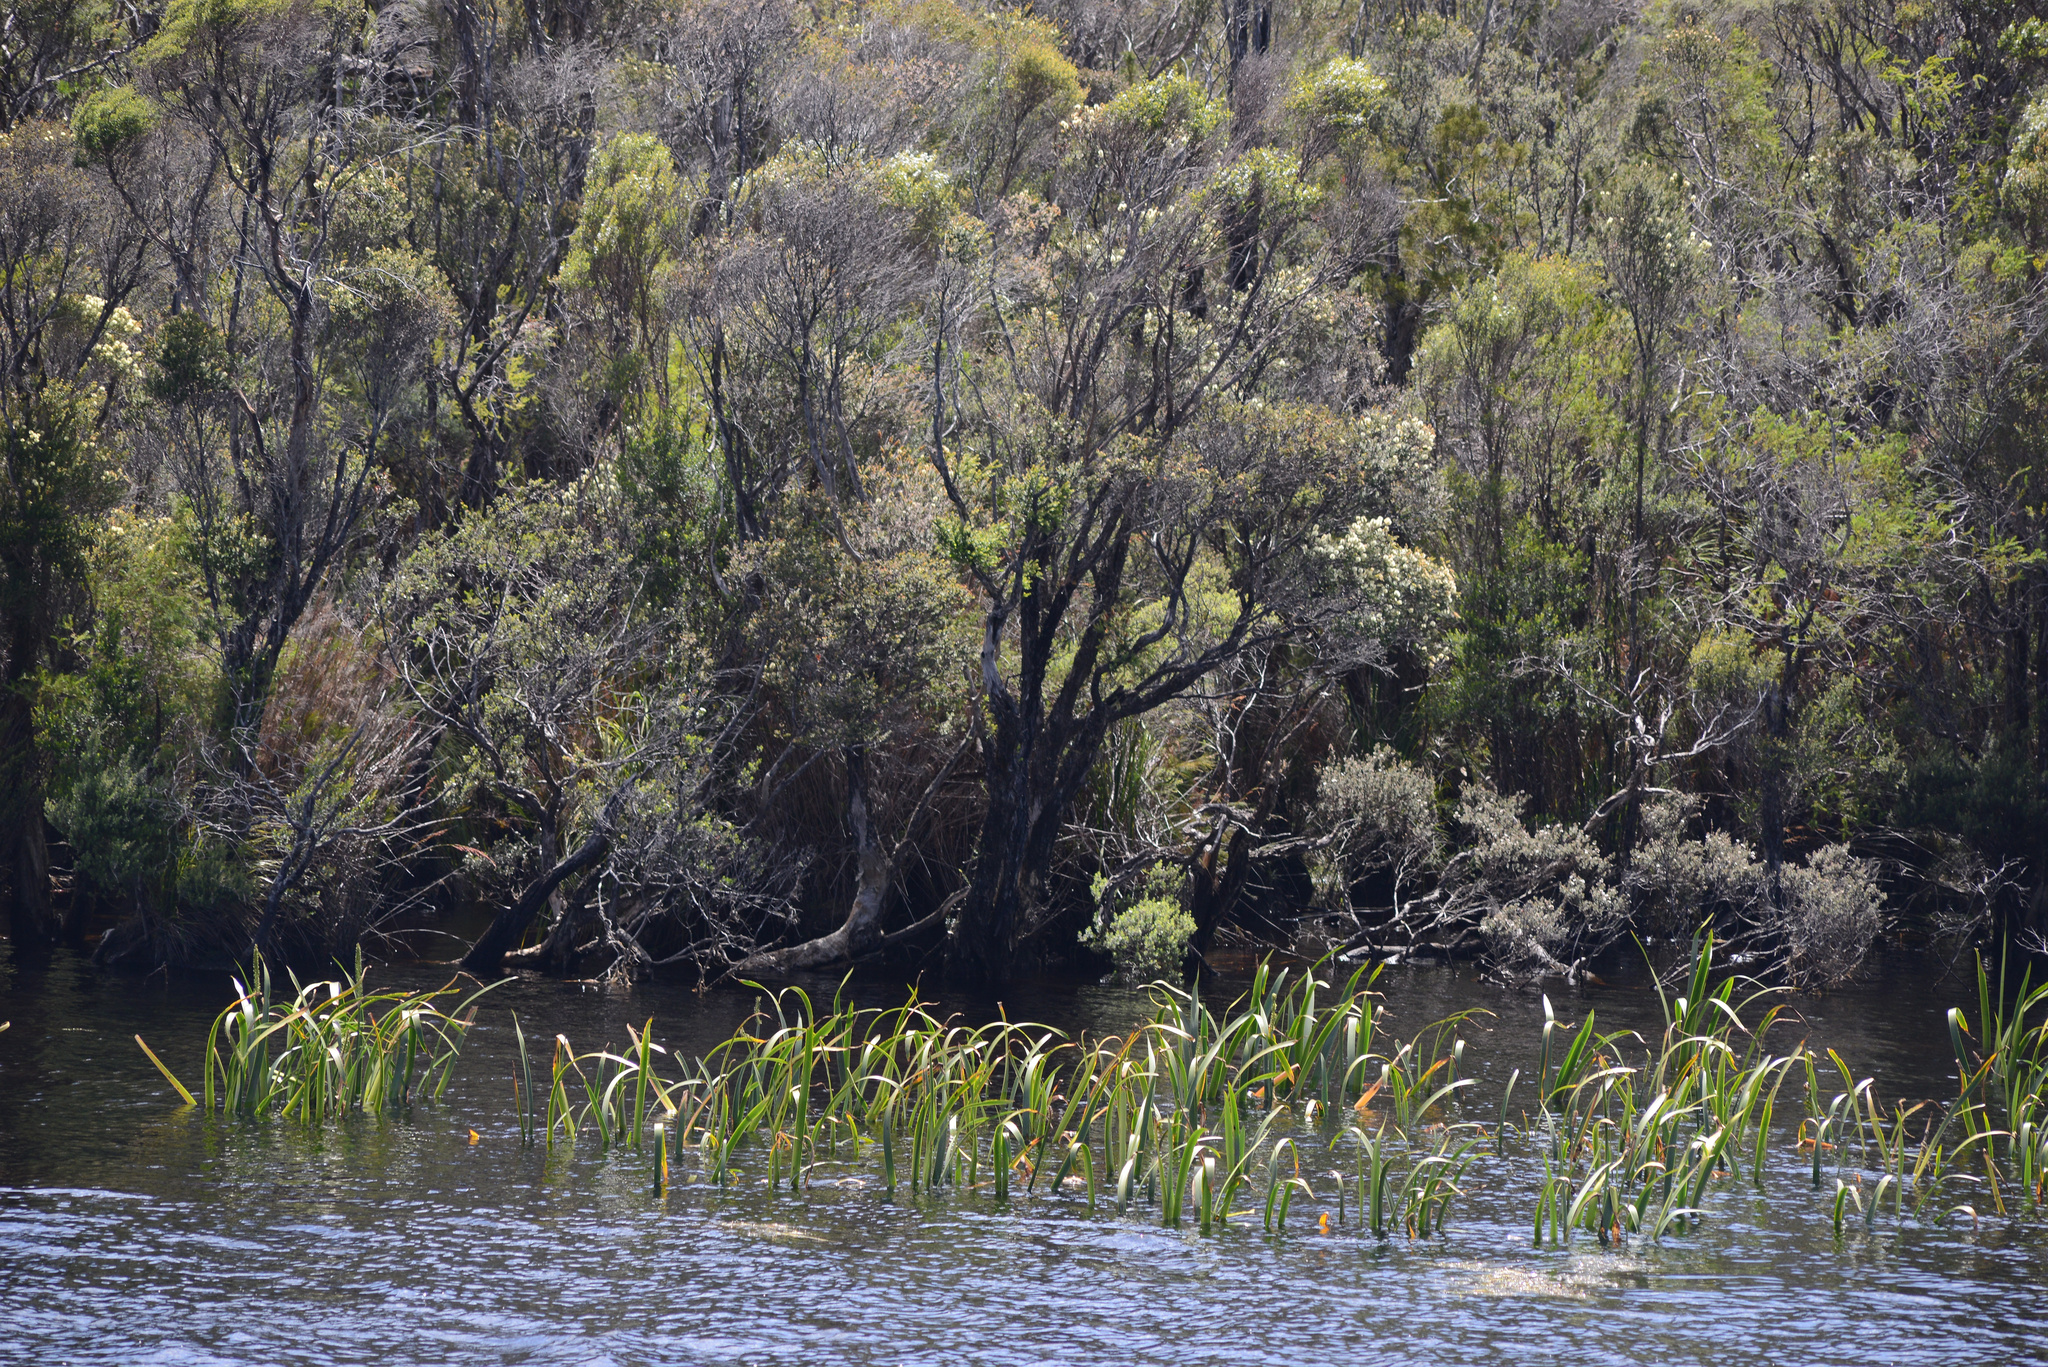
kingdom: Plantae
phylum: Tracheophyta
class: Liliopsida
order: Alismatales
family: Juncaginaceae
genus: Cycnogeton
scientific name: Cycnogeton procerum
